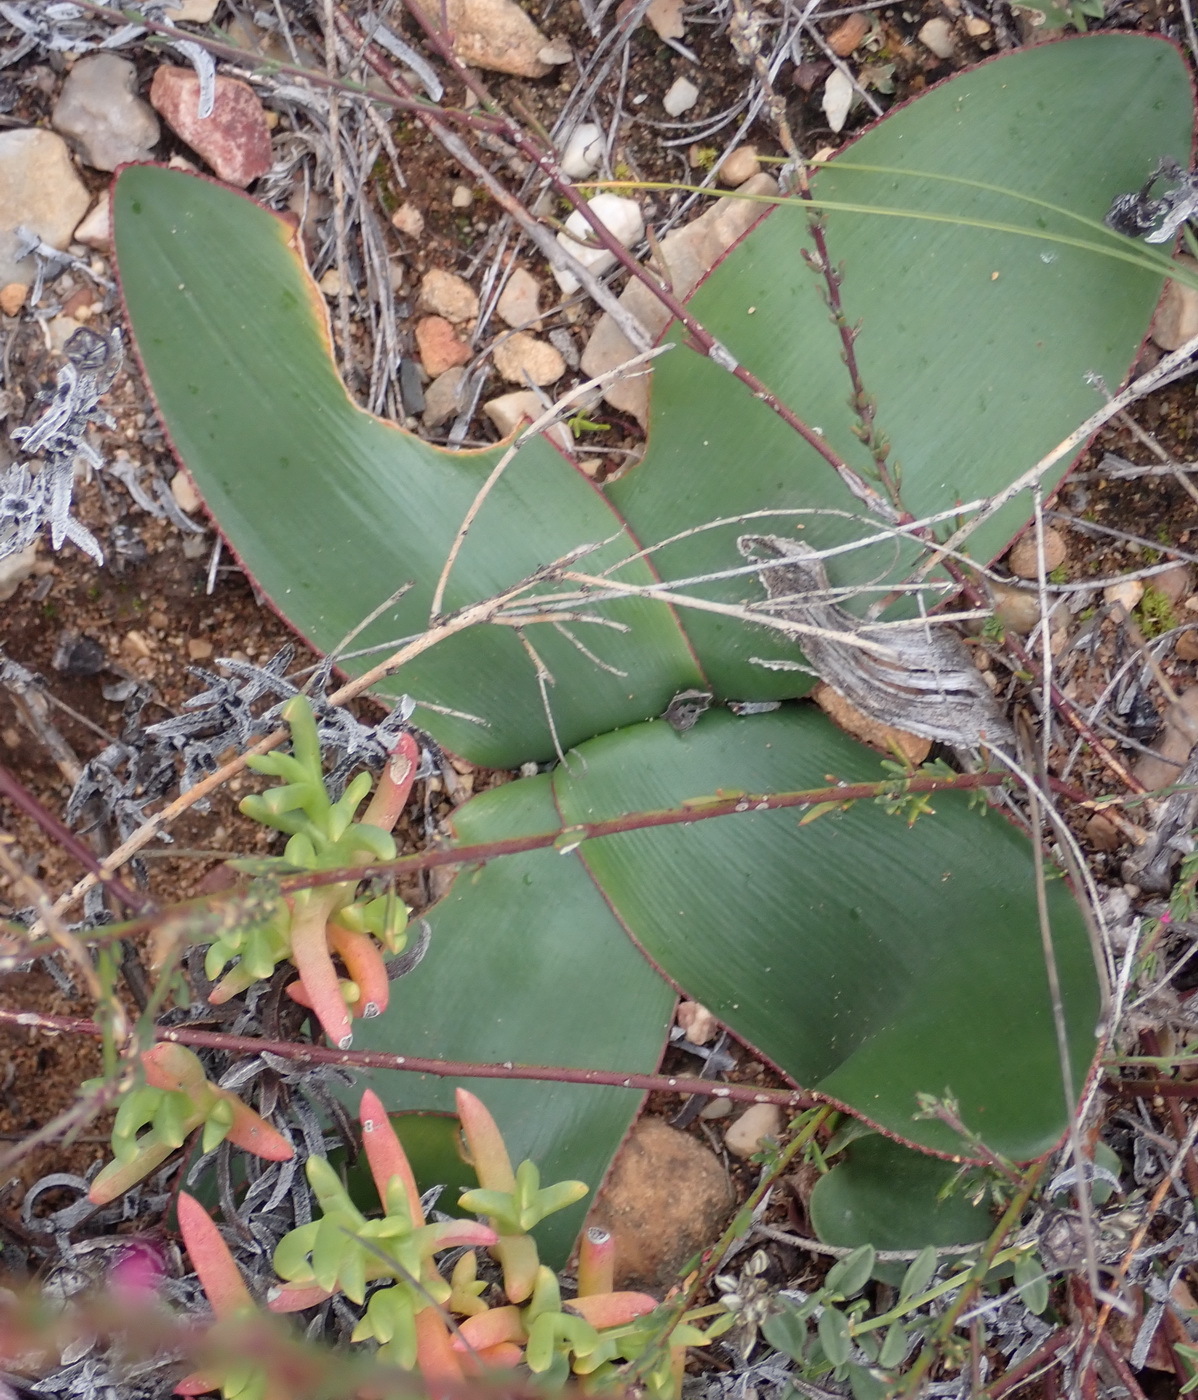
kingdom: Plantae
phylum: Tracheophyta
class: Liliopsida
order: Asparagales
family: Amaryllidaceae
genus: Brunsvigia
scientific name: Brunsvigia nervosa
